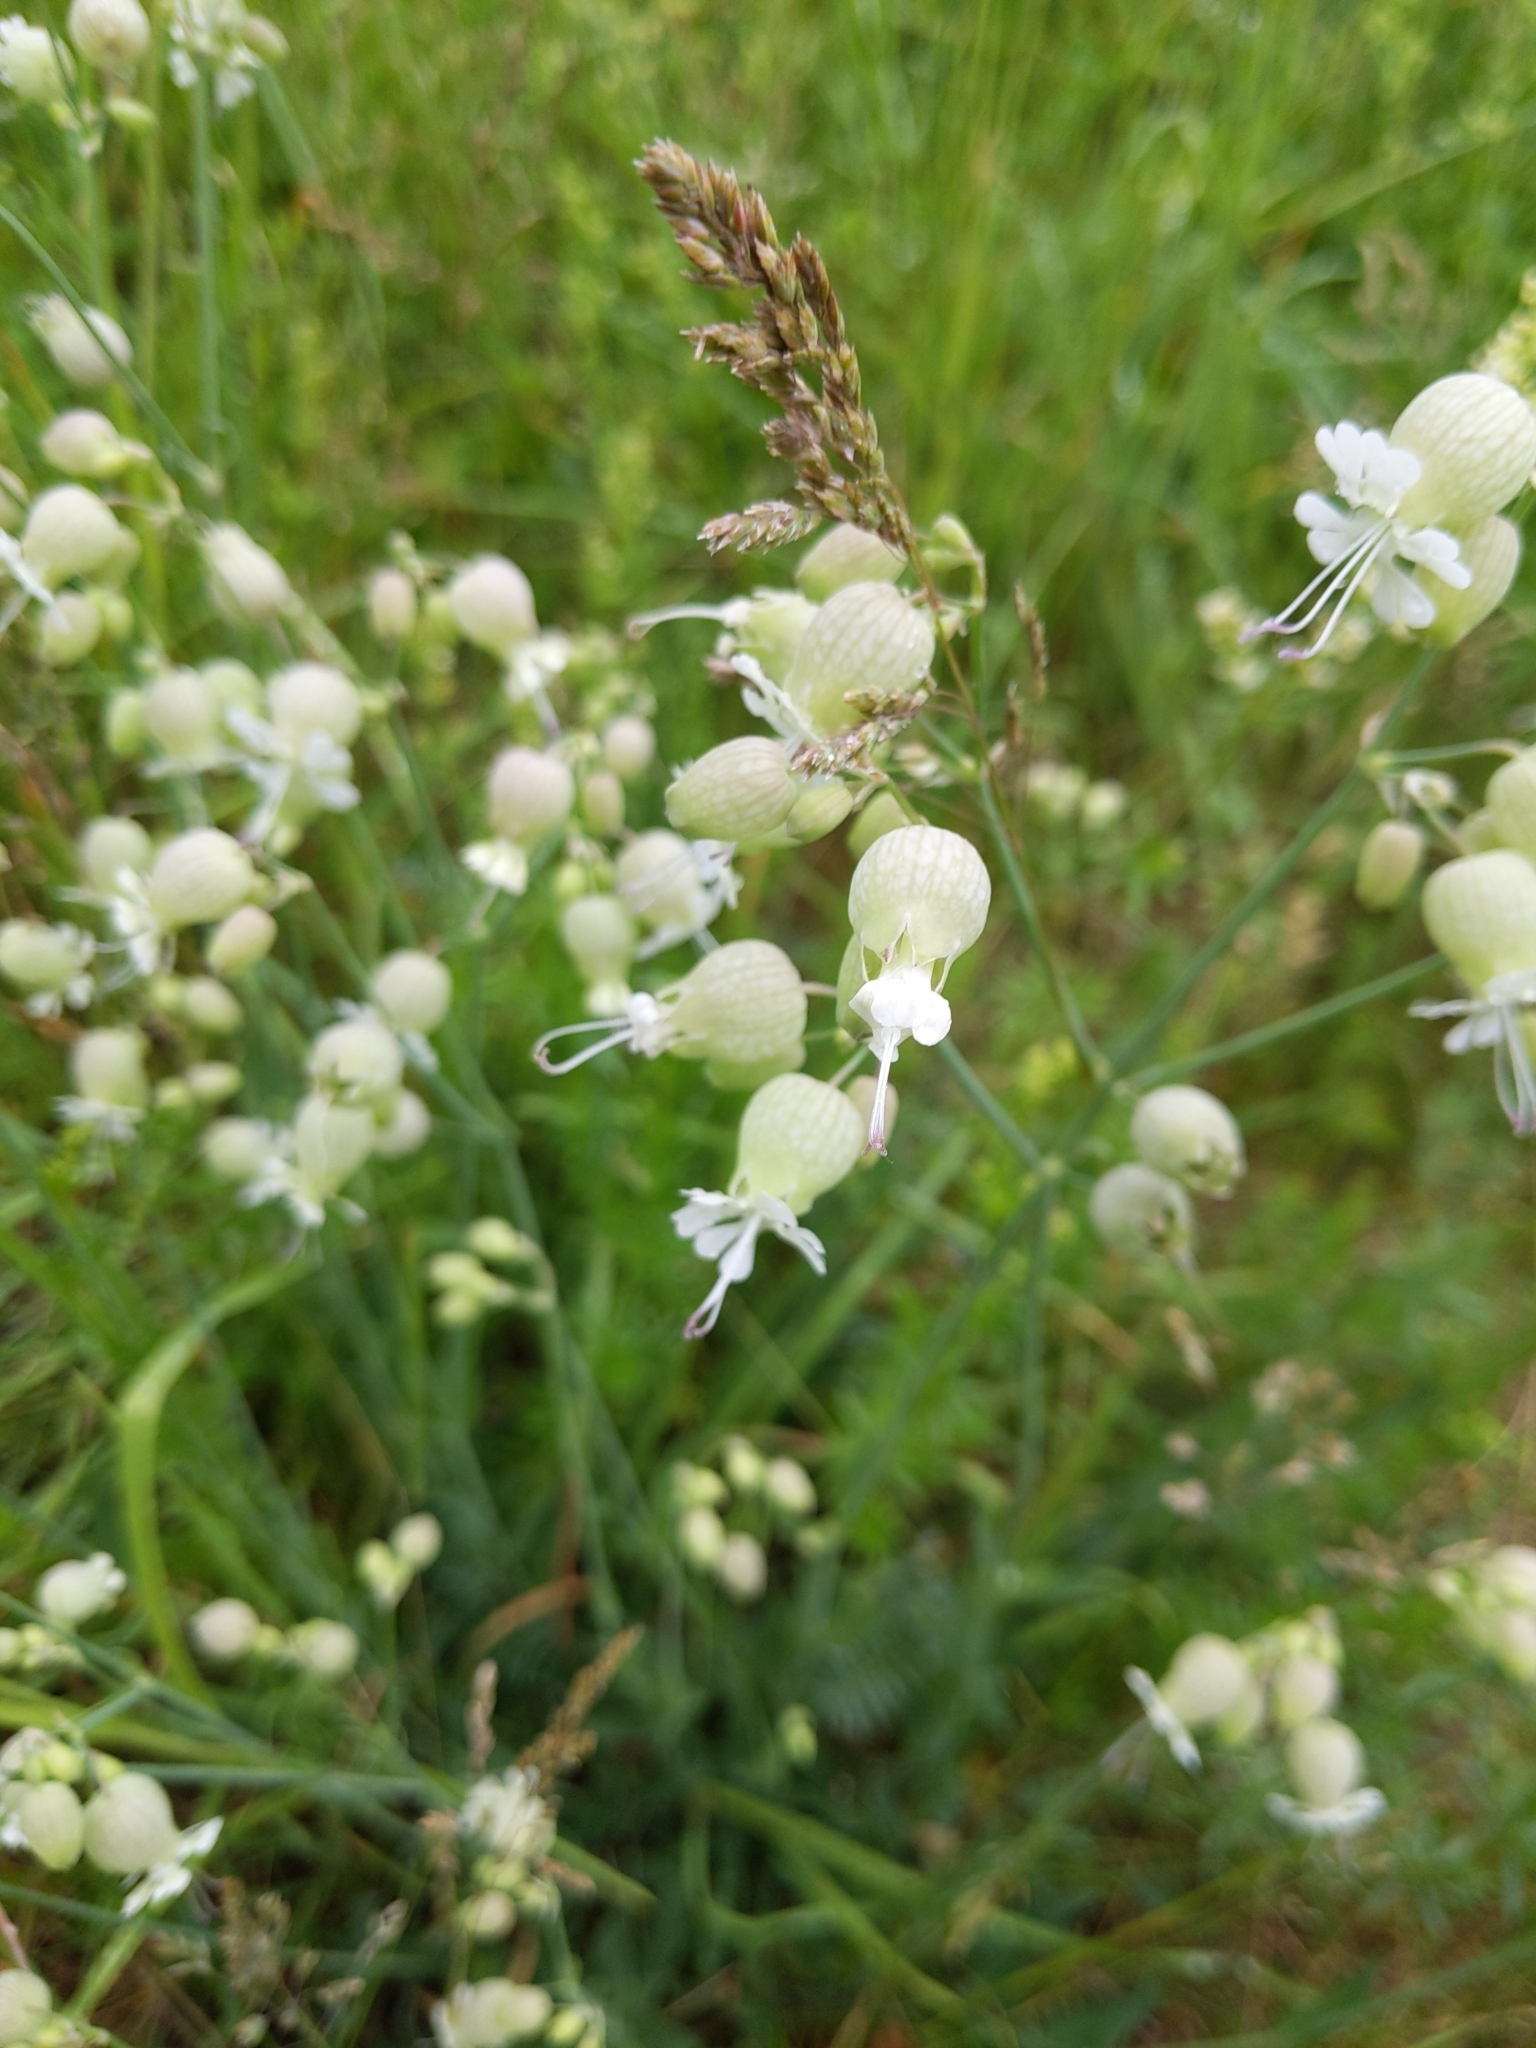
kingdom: Plantae
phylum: Tracheophyta
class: Magnoliopsida
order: Caryophyllales
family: Caryophyllaceae
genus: Silene
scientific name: Silene vulgaris
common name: Bladder campion
